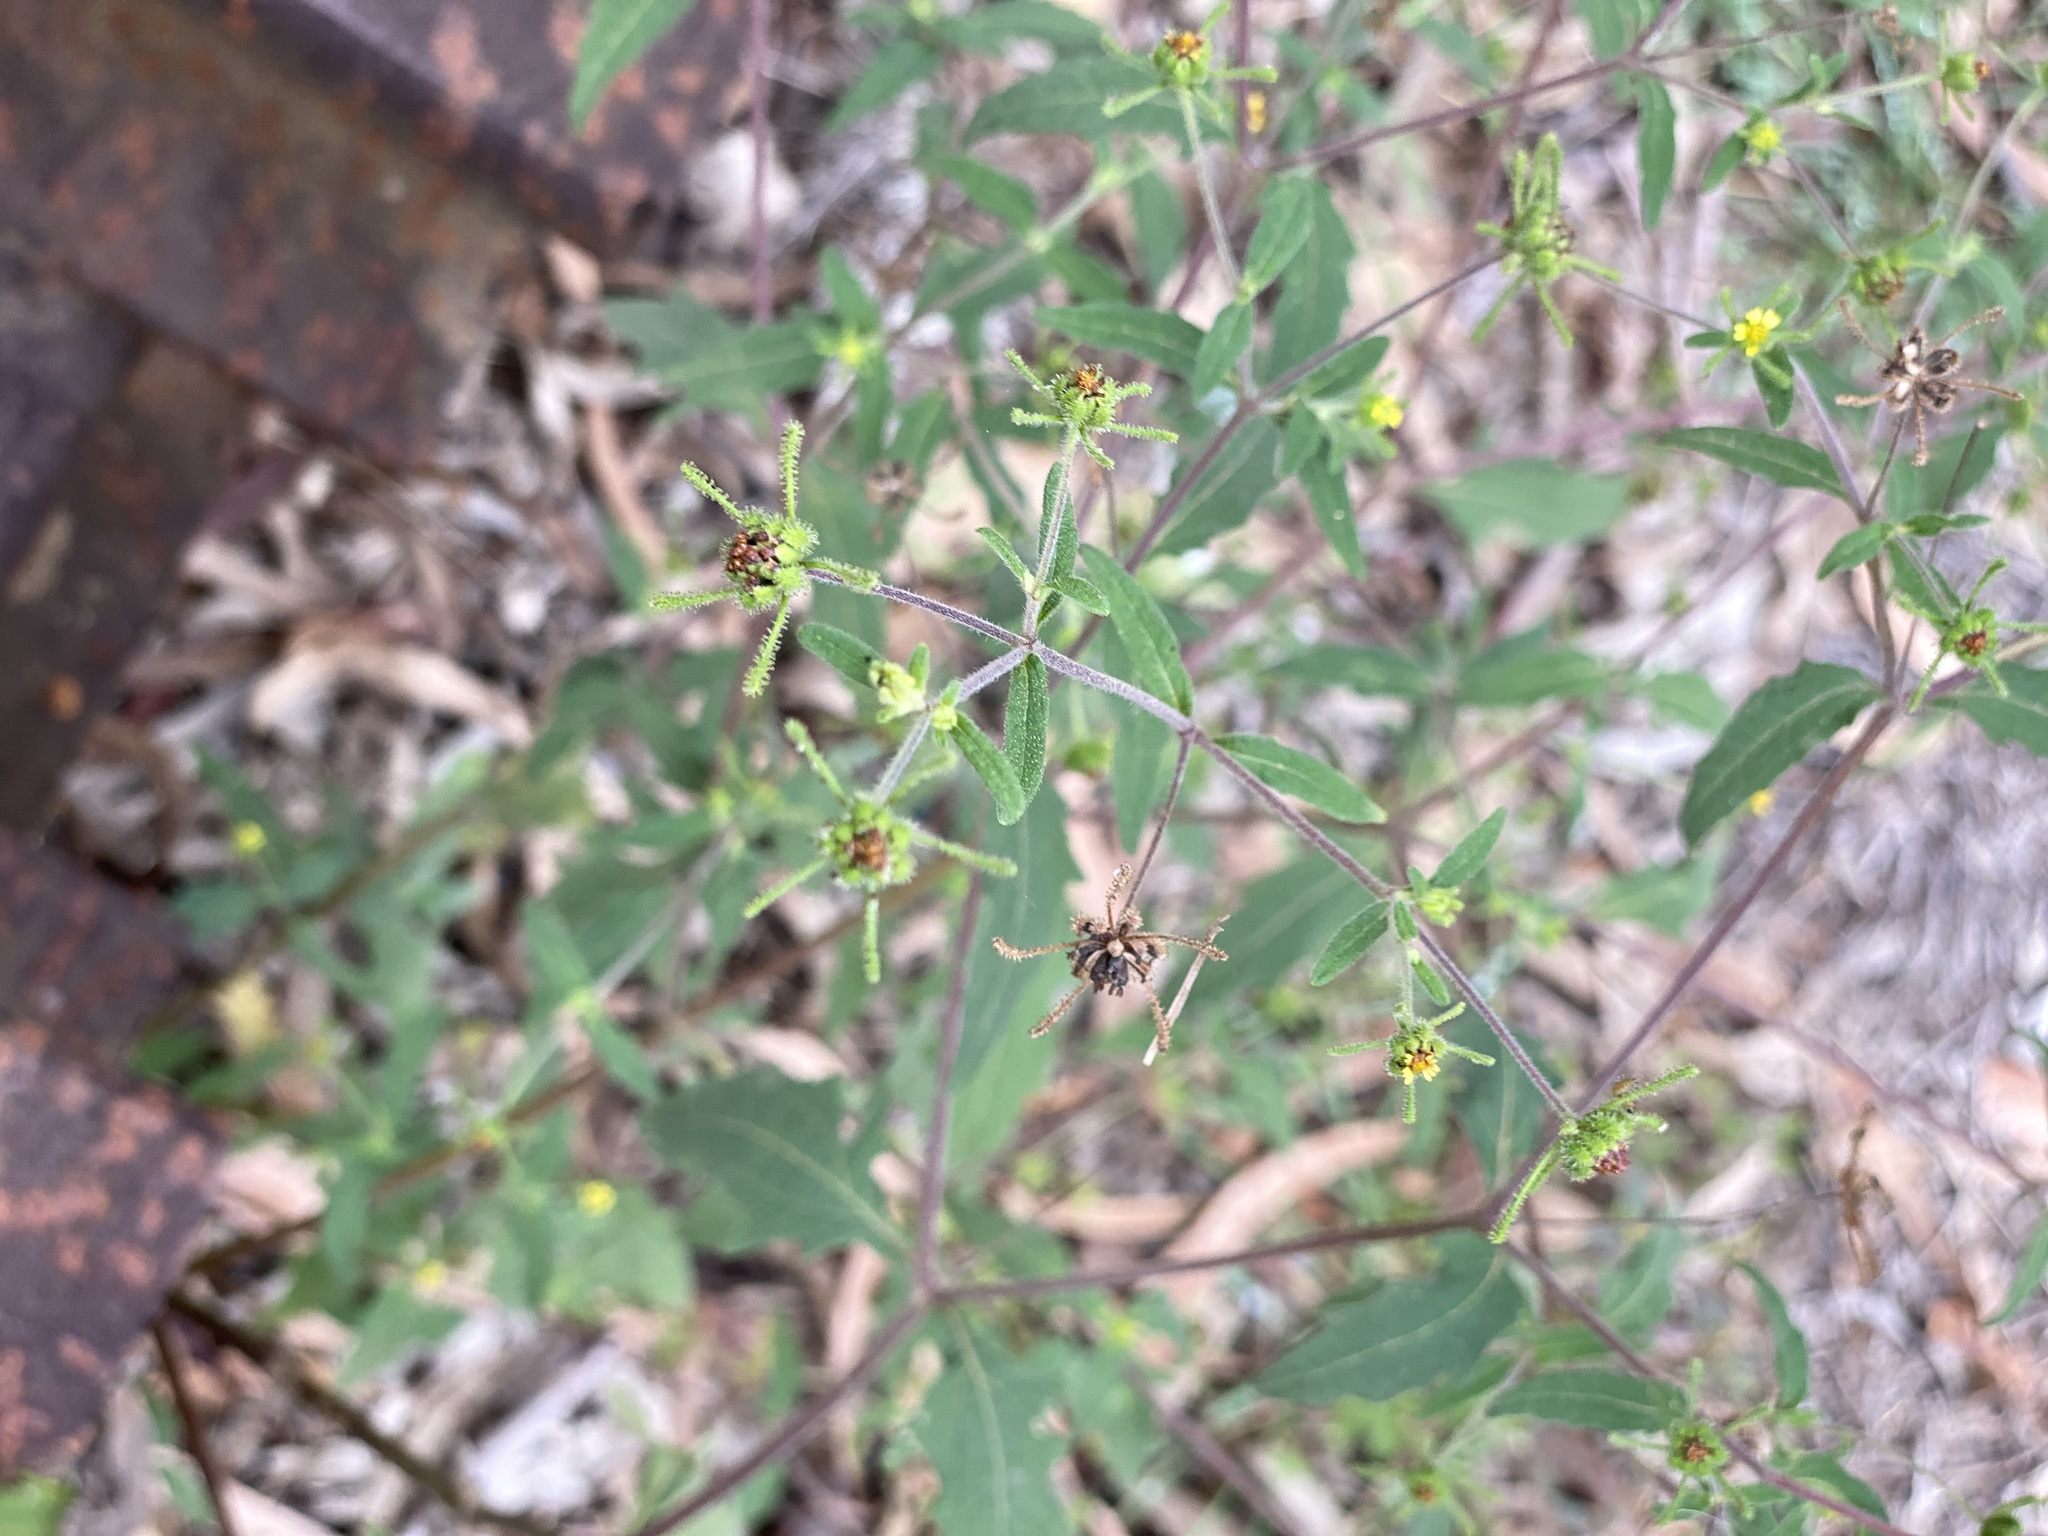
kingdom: Plantae
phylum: Tracheophyta
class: Magnoliopsida
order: Asterales
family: Asteraceae
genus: Sigesbeckia
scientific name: Sigesbeckia orientalis
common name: Eastern st paul's-wort
